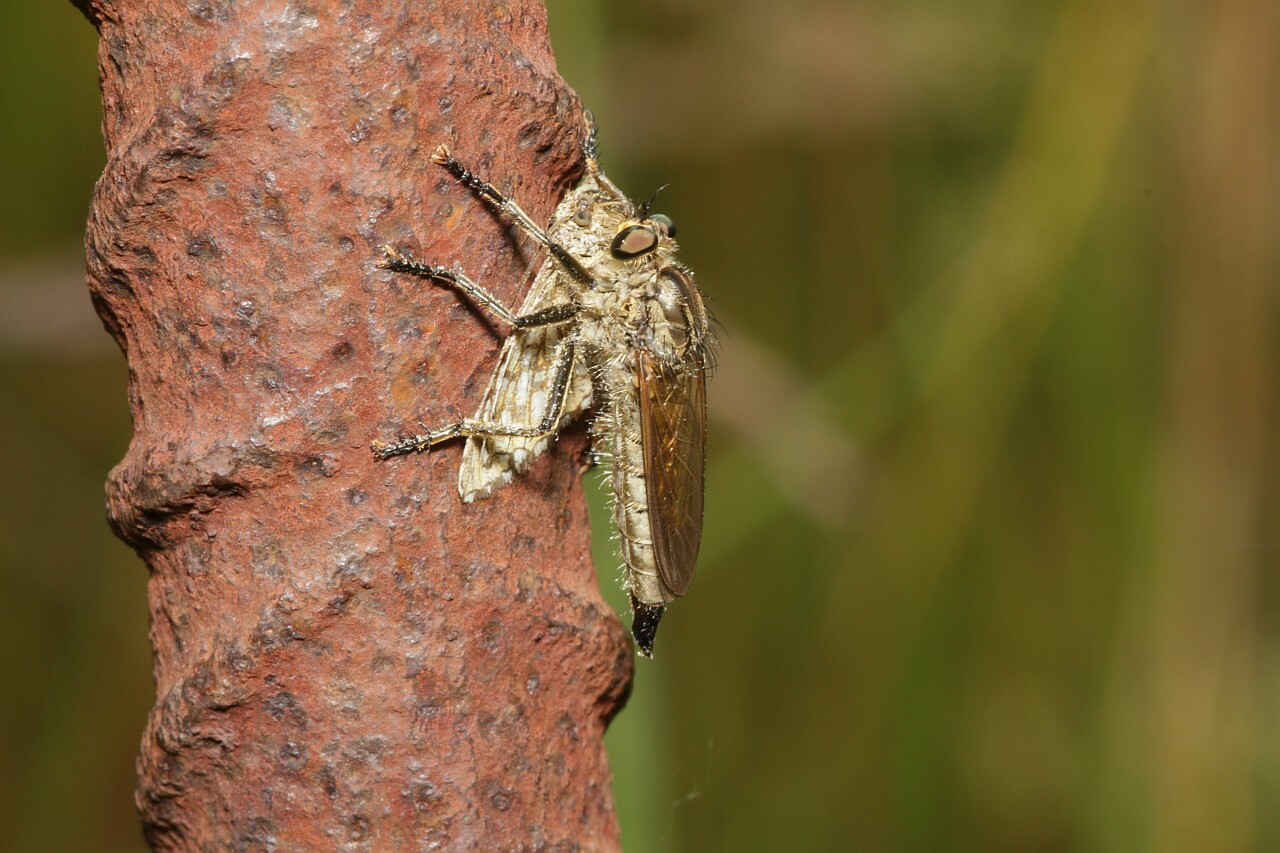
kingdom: Animalia
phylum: Arthropoda
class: Insecta
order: Diptera
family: Asilidae
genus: Eutolmus
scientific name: Eutolmus rufibarbis
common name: Golden-tabbed robberfly
